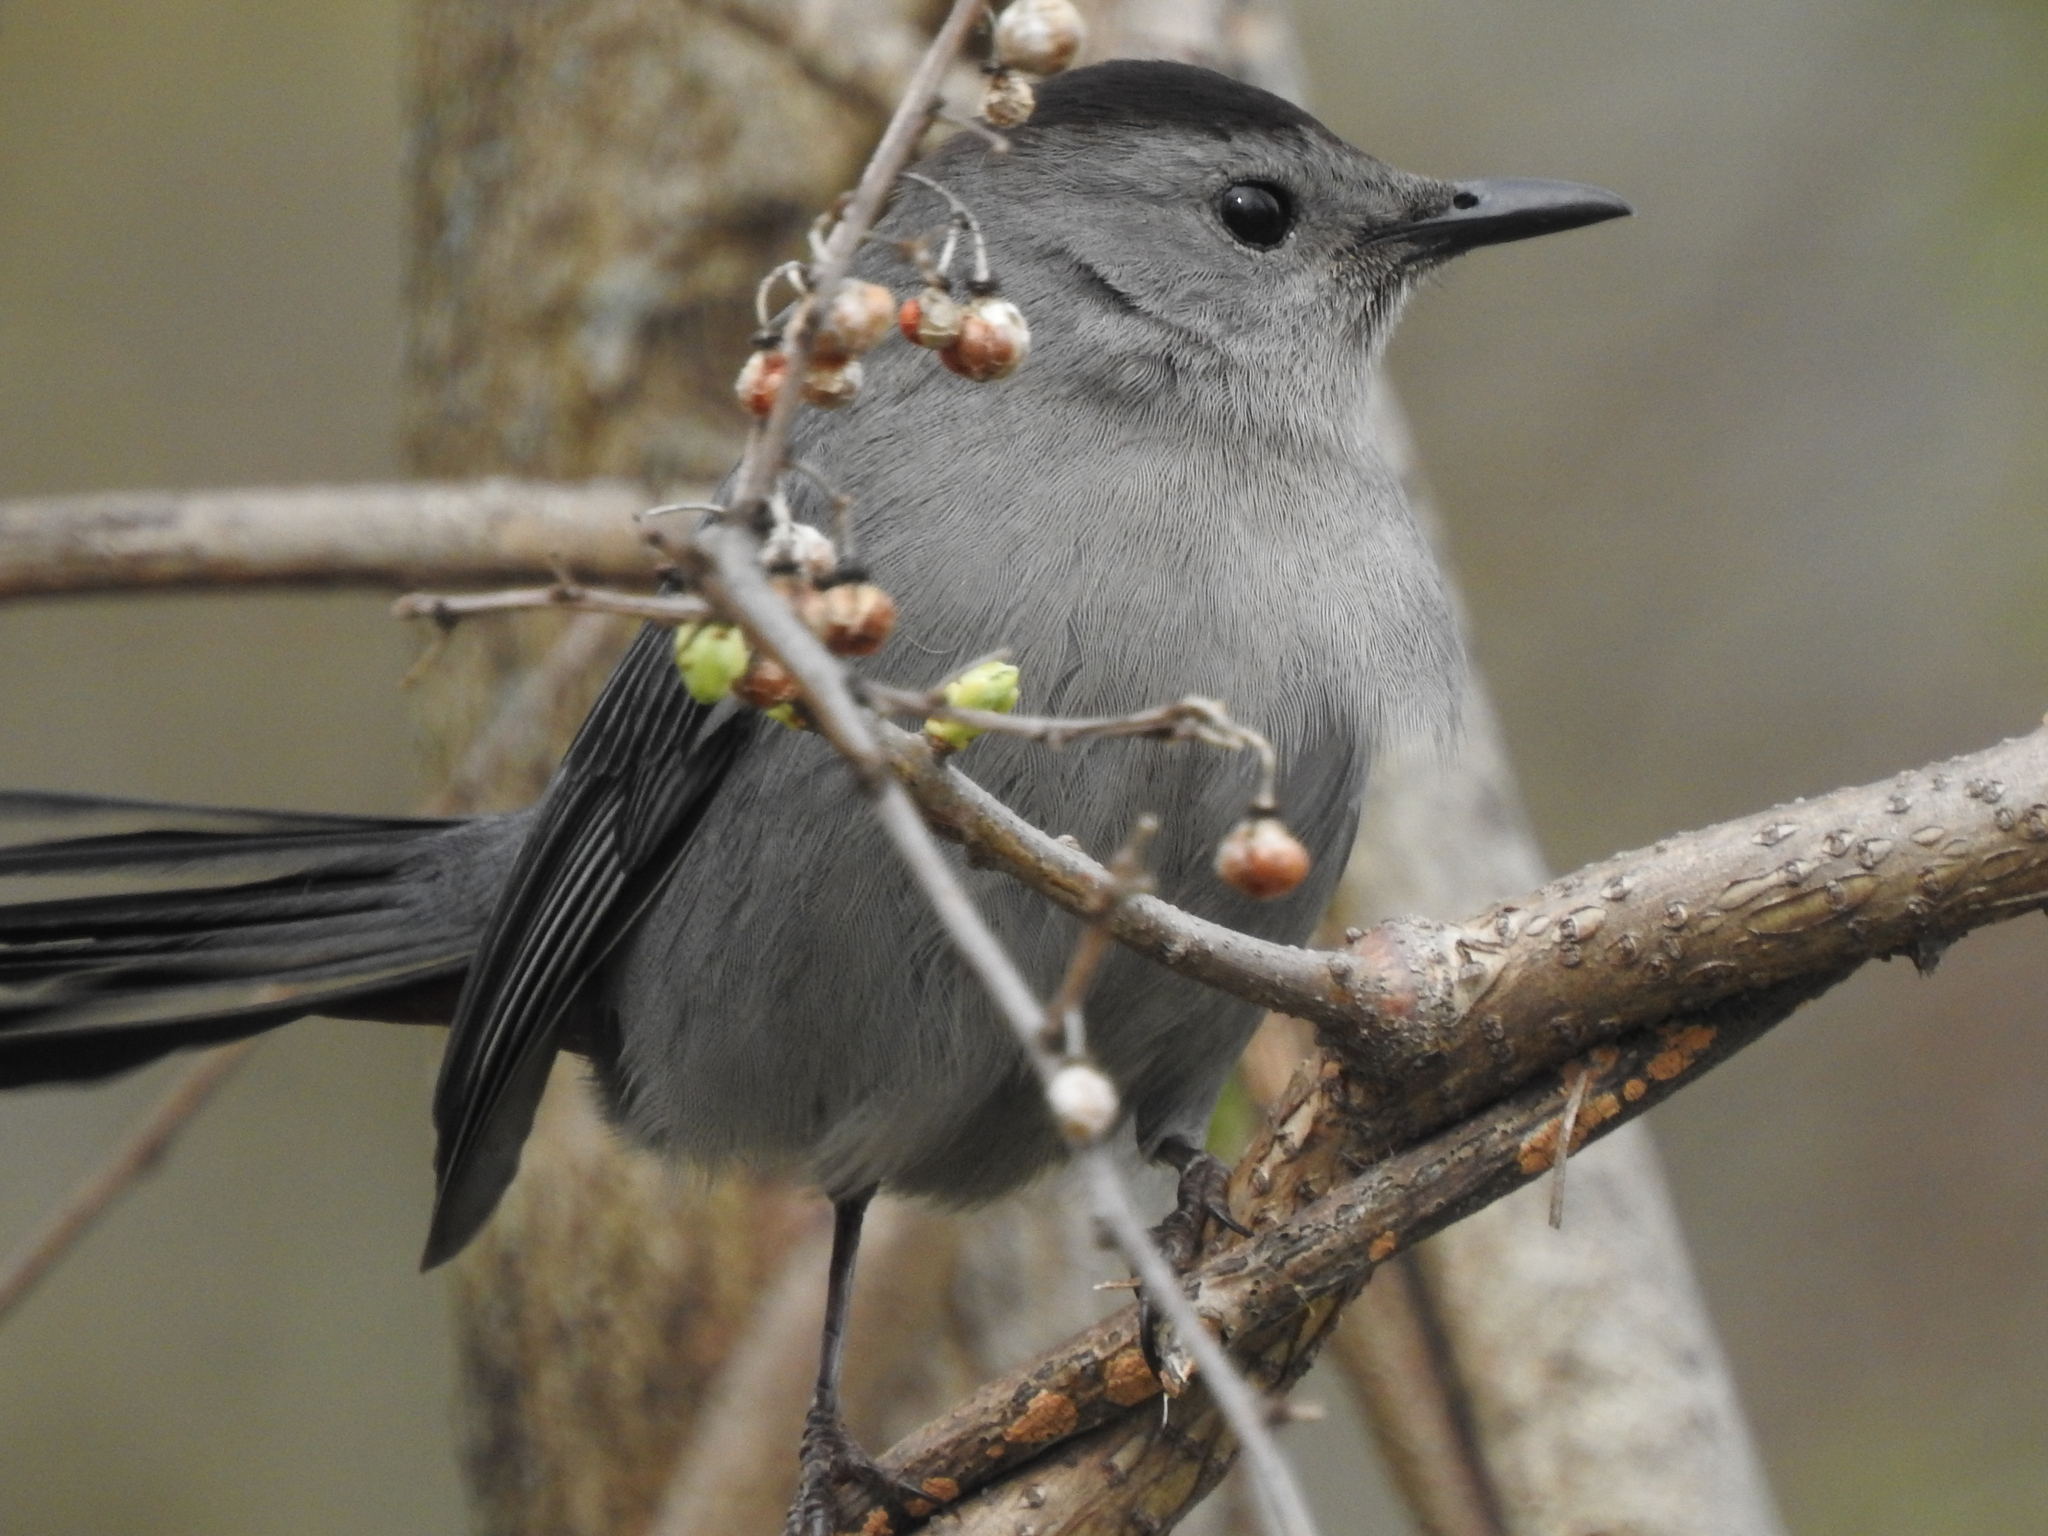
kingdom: Animalia
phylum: Chordata
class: Aves
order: Passeriformes
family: Mimidae
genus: Dumetella
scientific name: Dumetella carolinensis
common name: Gray catbird
